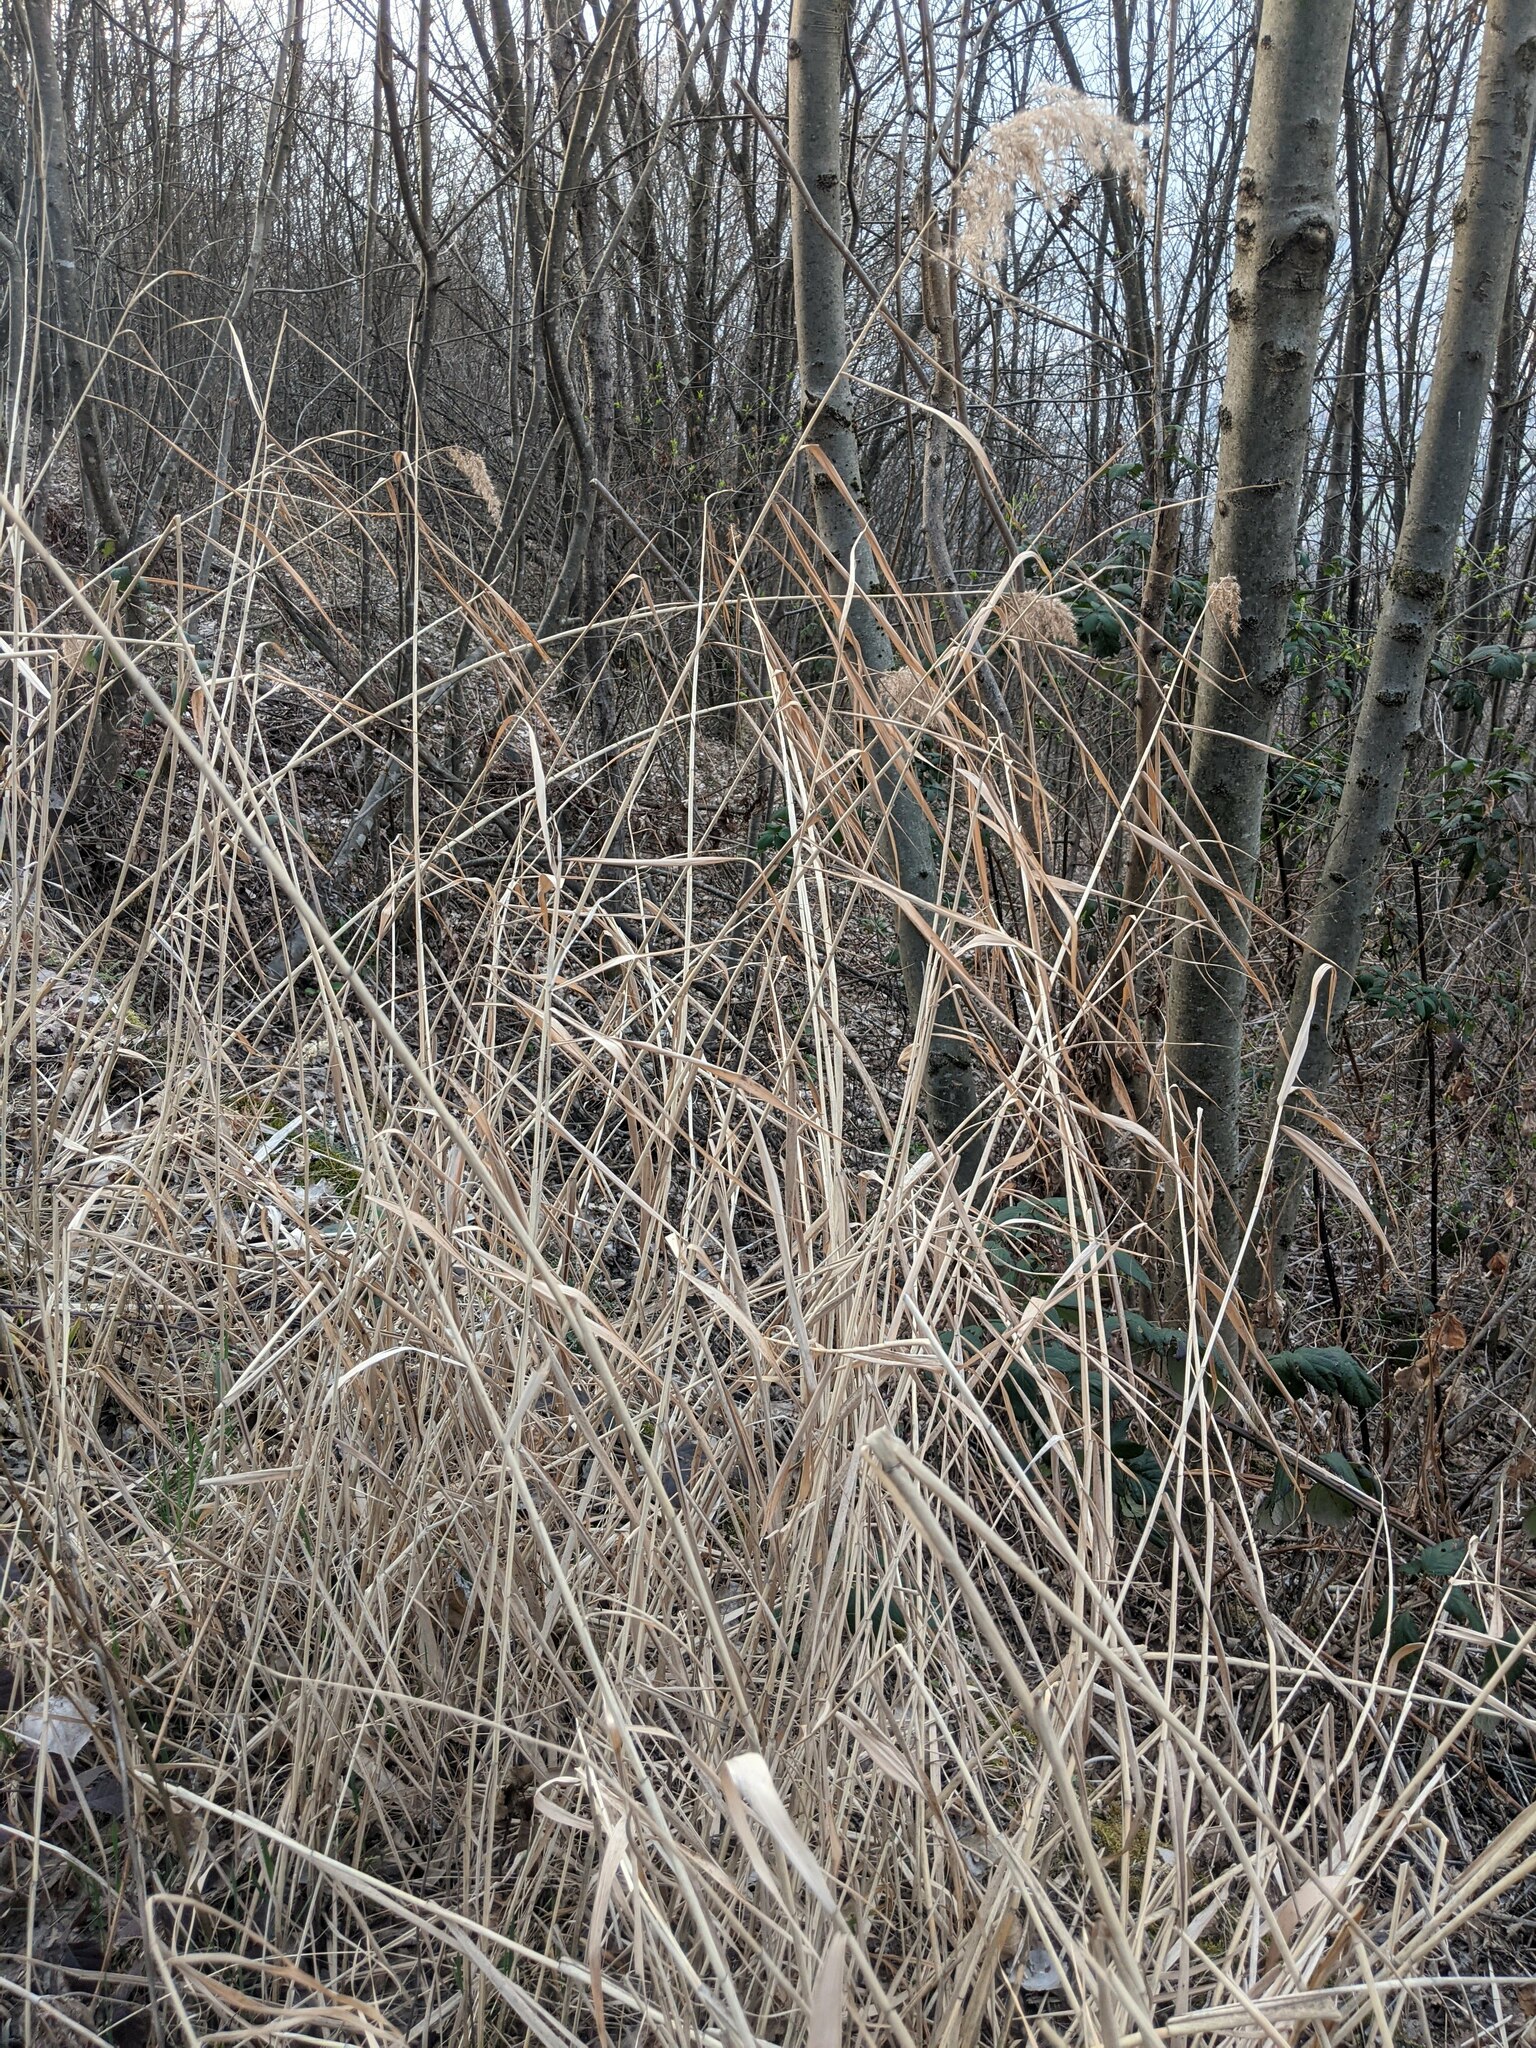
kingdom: Plantae
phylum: Tracheophyta
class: Liliopsida
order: Poales
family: Poaceae
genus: Phragmites
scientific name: Phragmites australis
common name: Common reed
